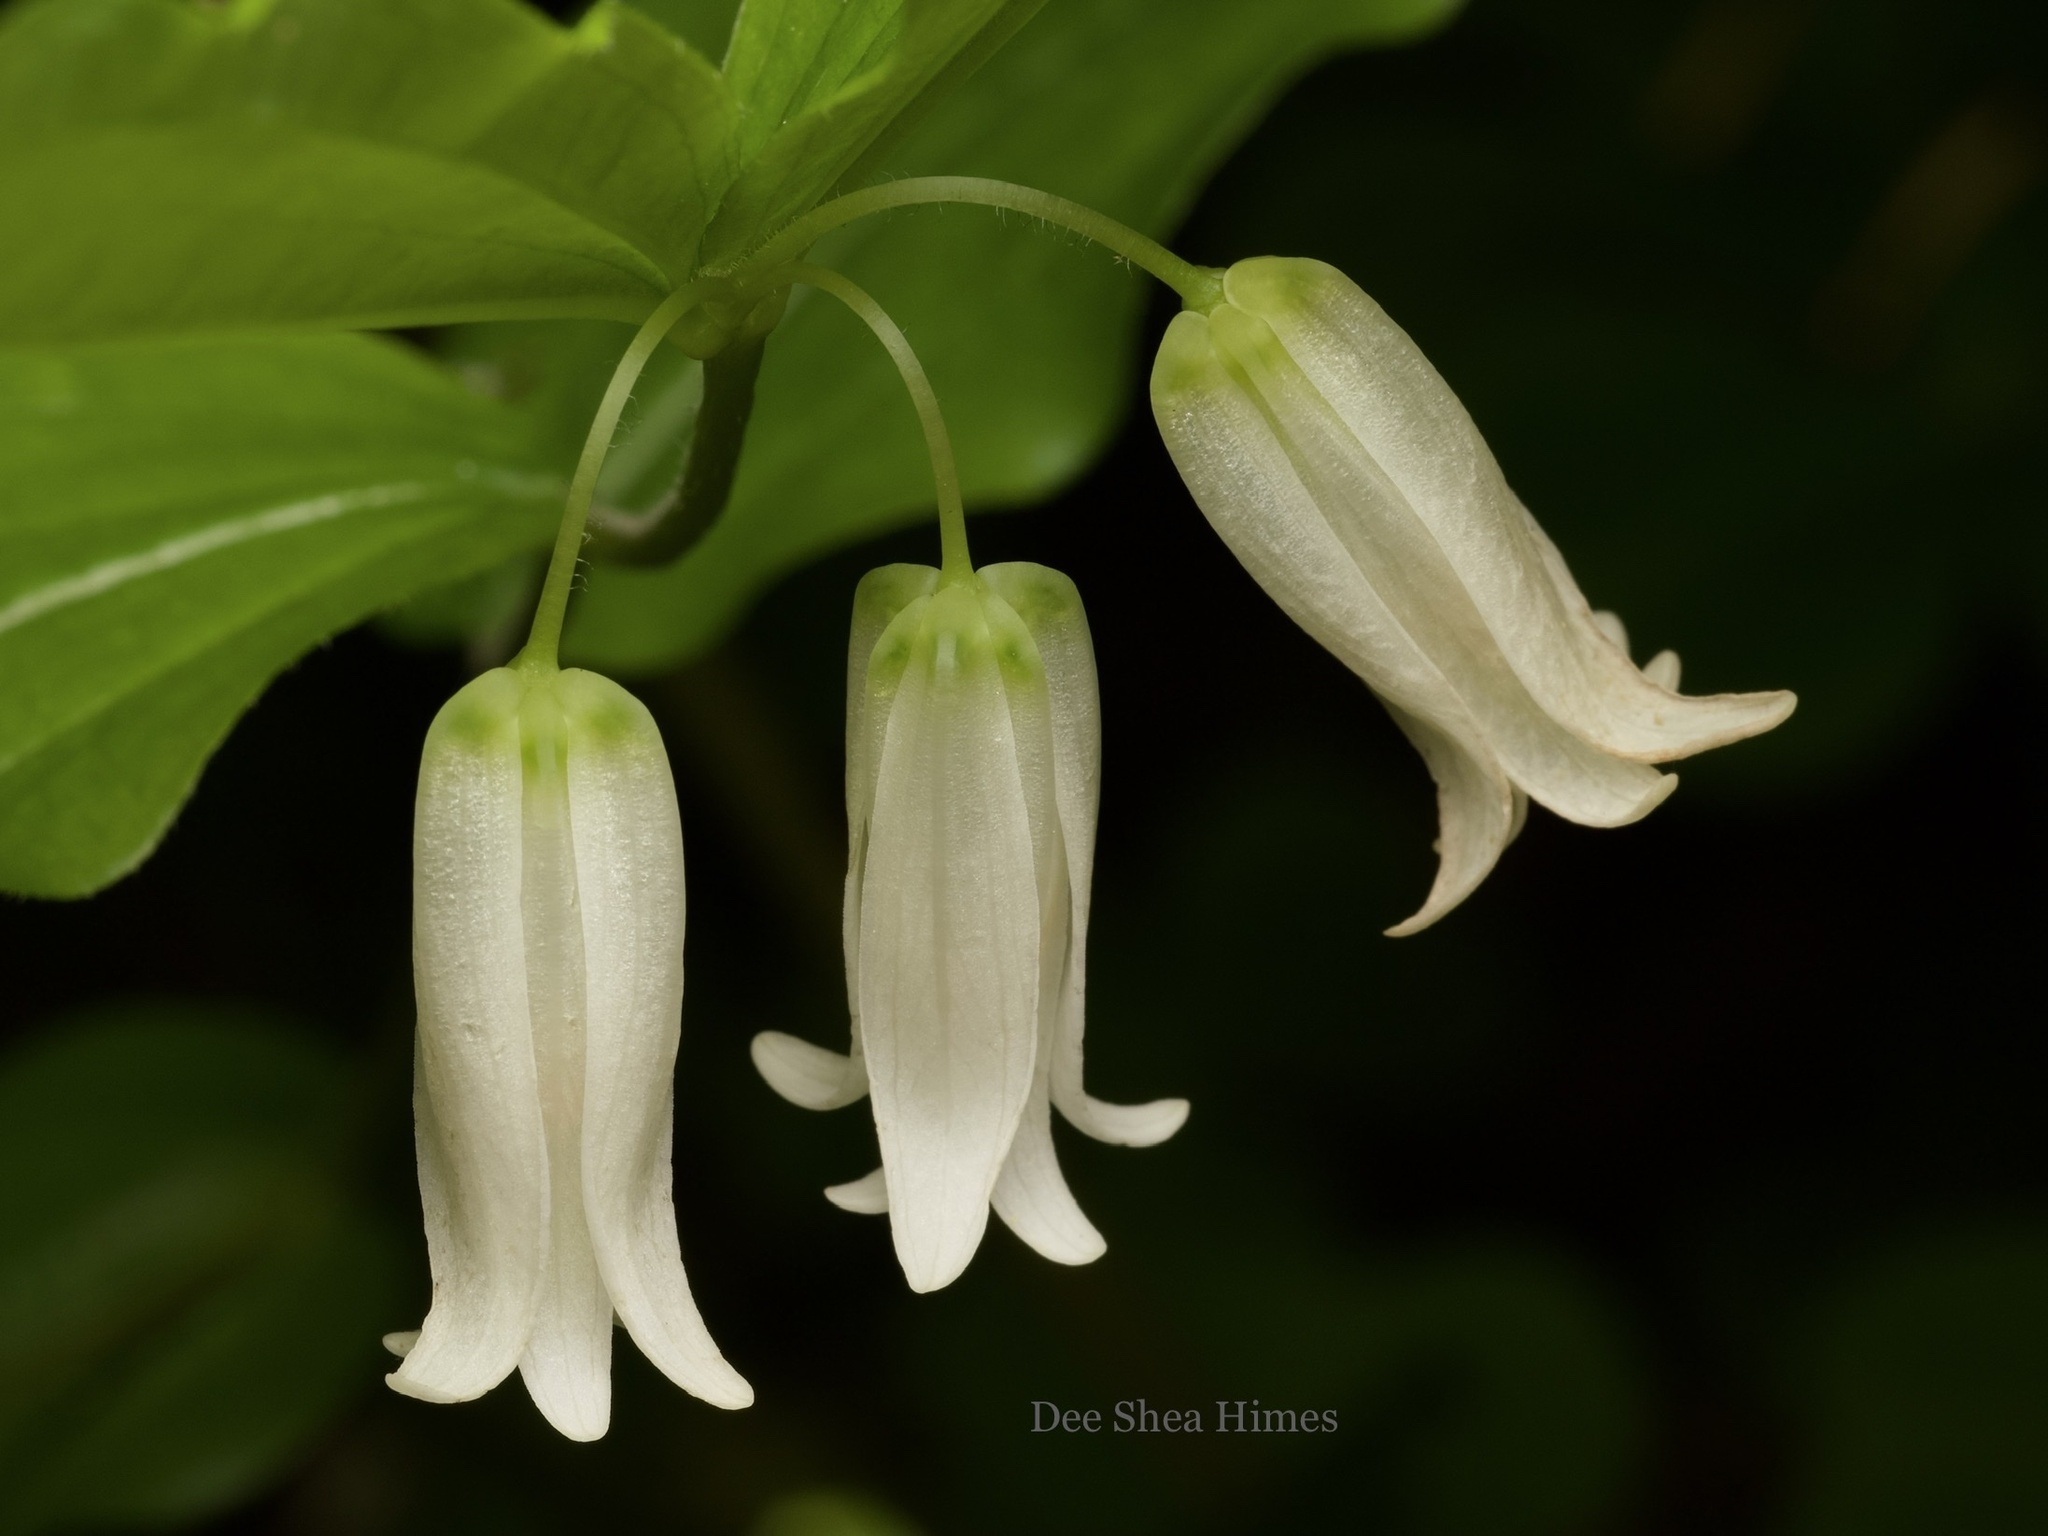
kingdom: Plantae
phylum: Tracheophyta
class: Liliopsida
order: Liliales
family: Liliaceae
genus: Prosartes
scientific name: Prosartes smithii
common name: Fairy-lantern
